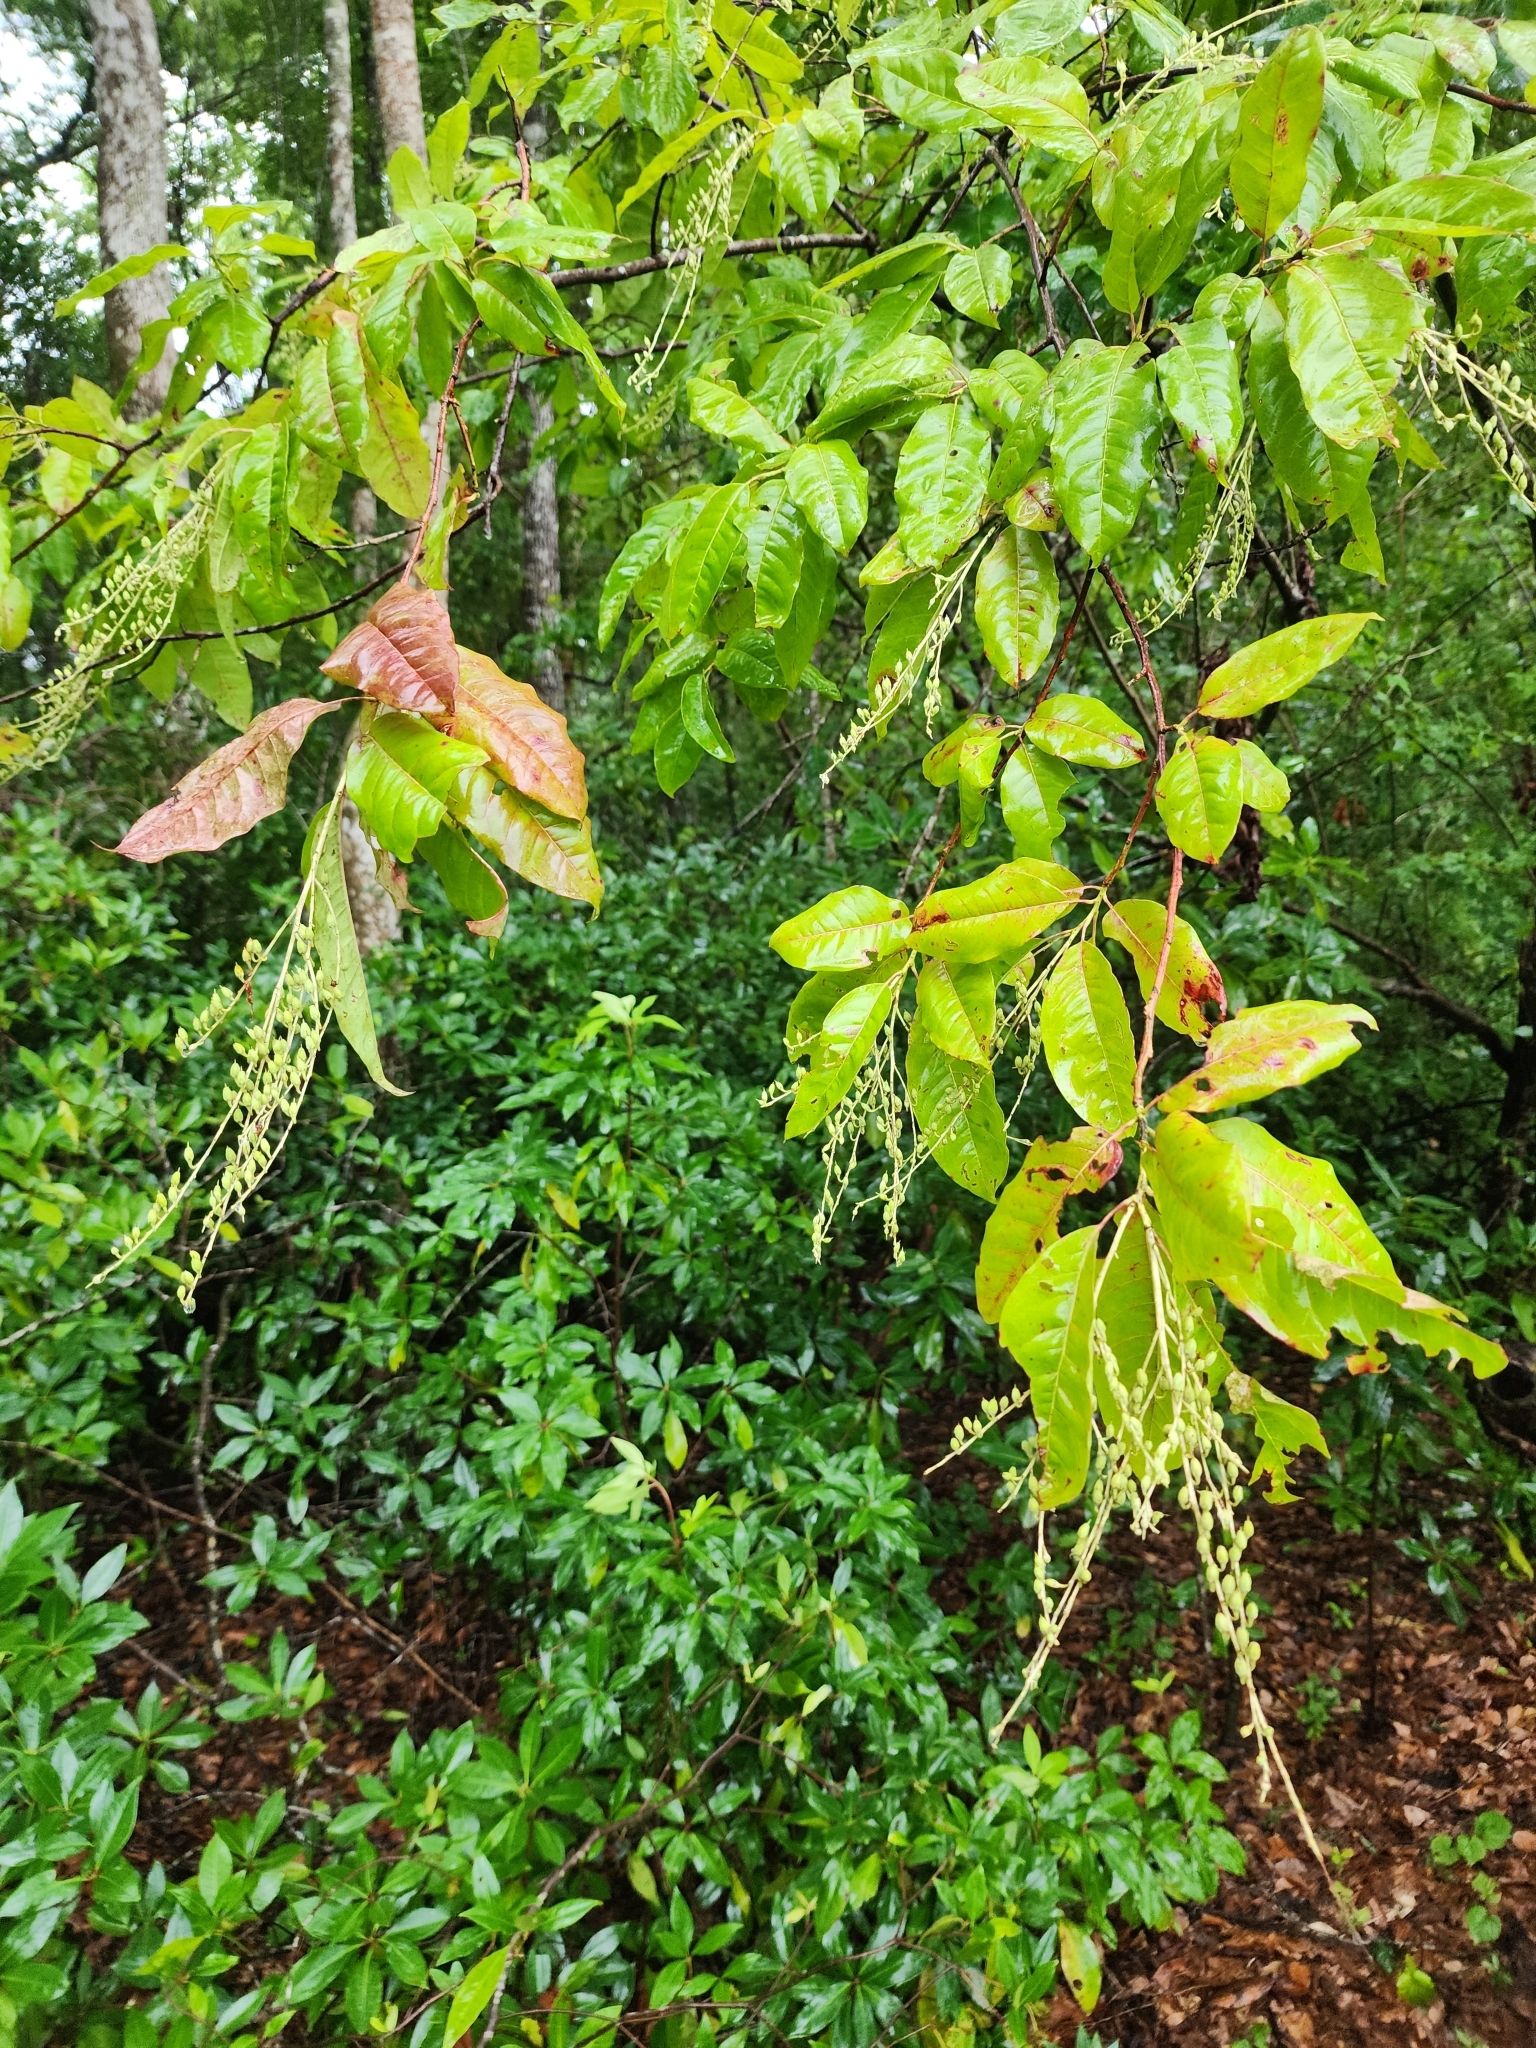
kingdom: Plantae
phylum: Tracheophyta
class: Magnoliopsida
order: Ericales
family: Ericaceae
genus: Oxydendrum
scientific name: Oxydendrum arboreum
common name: Sourwood
